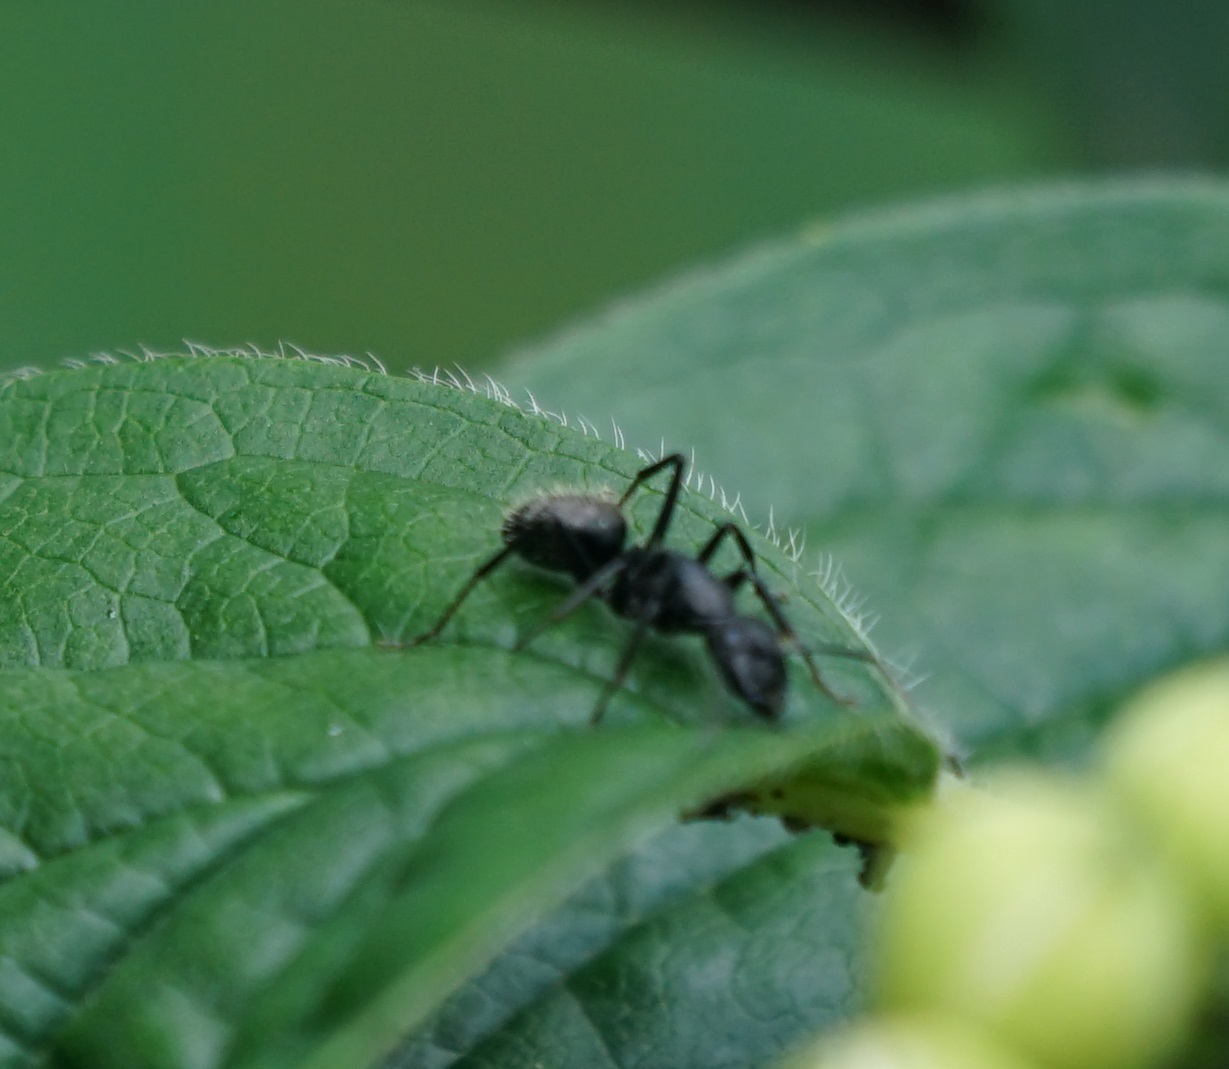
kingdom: Animalia
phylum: Arthropoda
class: Insecta
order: Hymenoptera
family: Formicidae
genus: Camponotus
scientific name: Camponotus vagus
